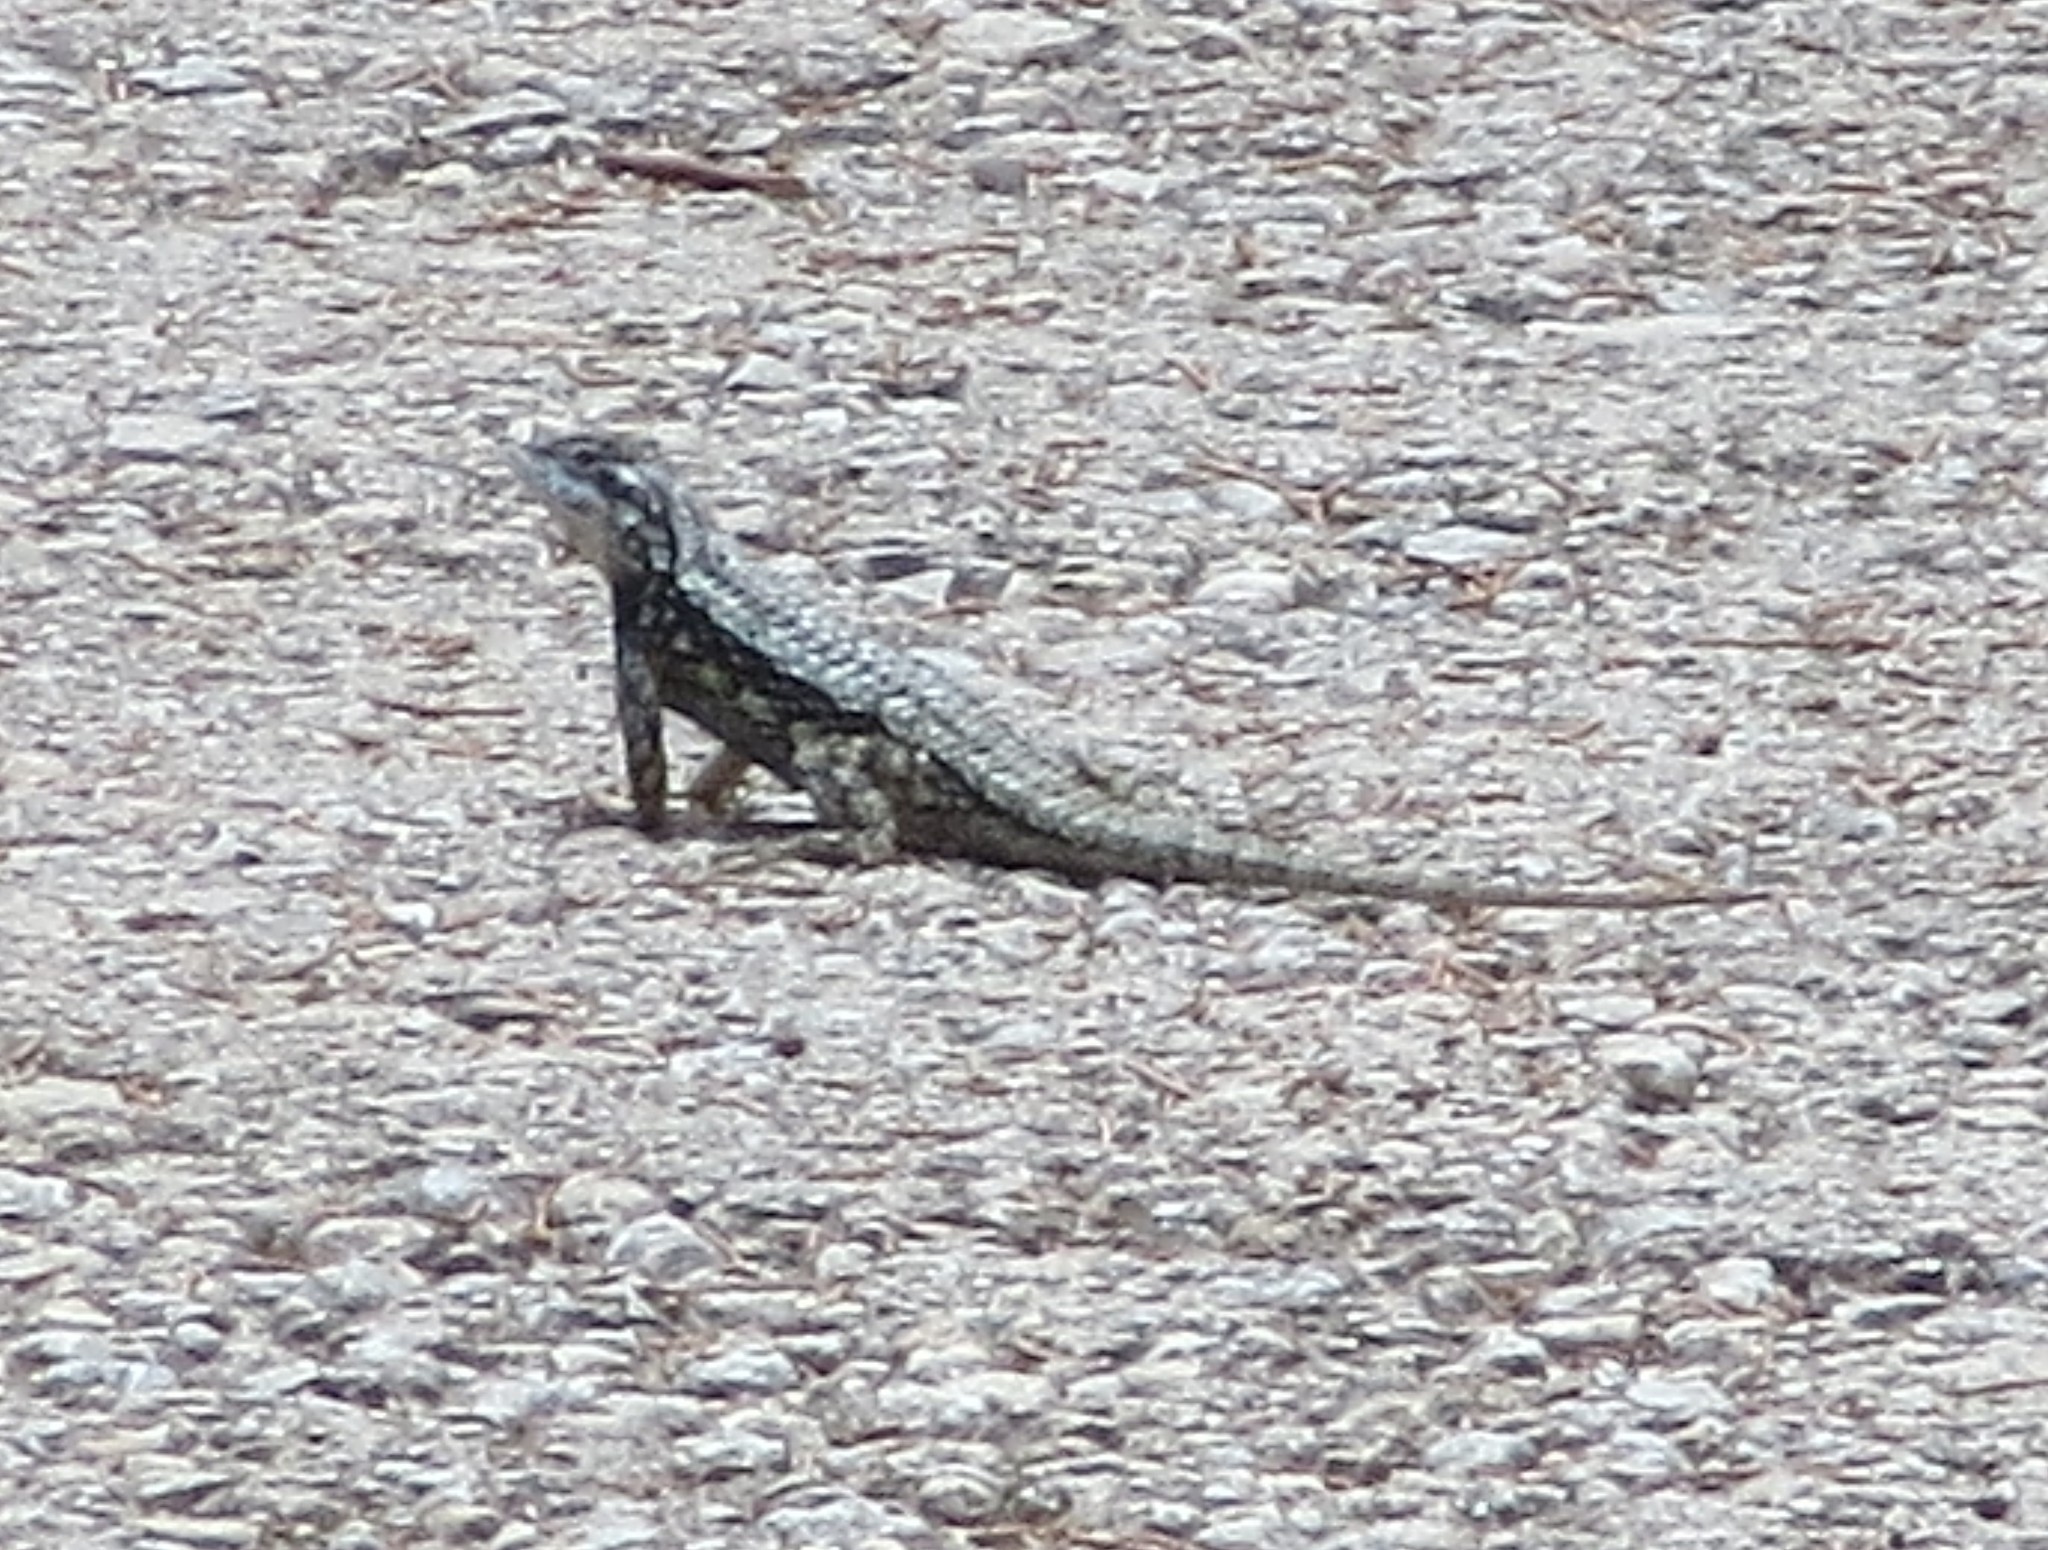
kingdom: Animalia
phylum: Chordata
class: Squamata
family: Phrynosomatidae
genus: Sceloporus
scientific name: Sceloporus olivaceus
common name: Texas spiny lizard
